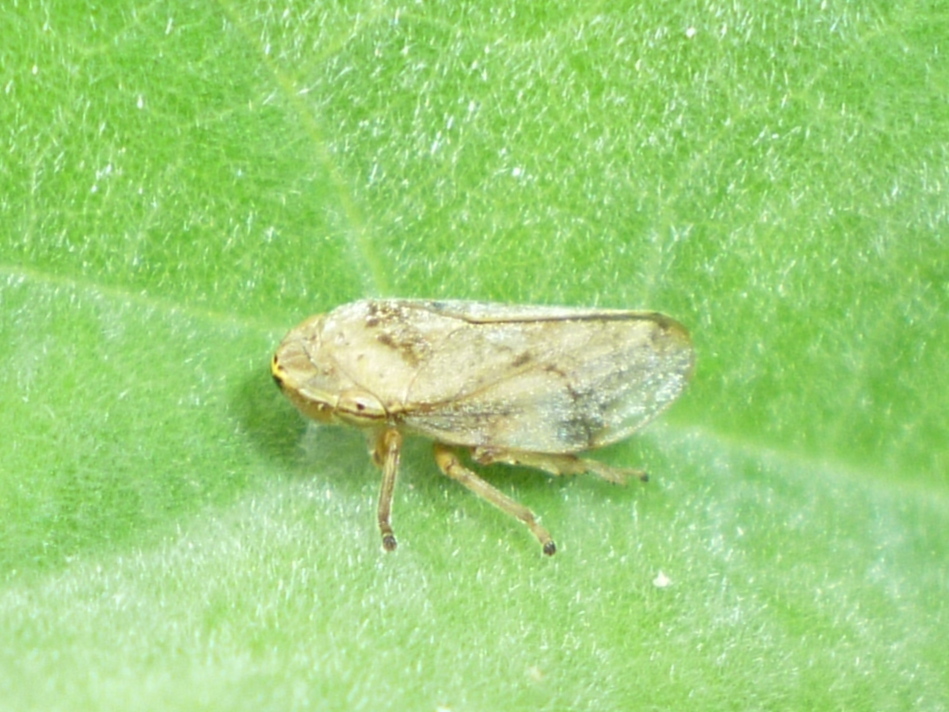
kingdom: Animalia
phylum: Arthropoda
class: Insecta
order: Hemiptera
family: Aphrophoridae
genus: Philaenus
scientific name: Philaenus spumarius
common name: Meadow spittlebug
